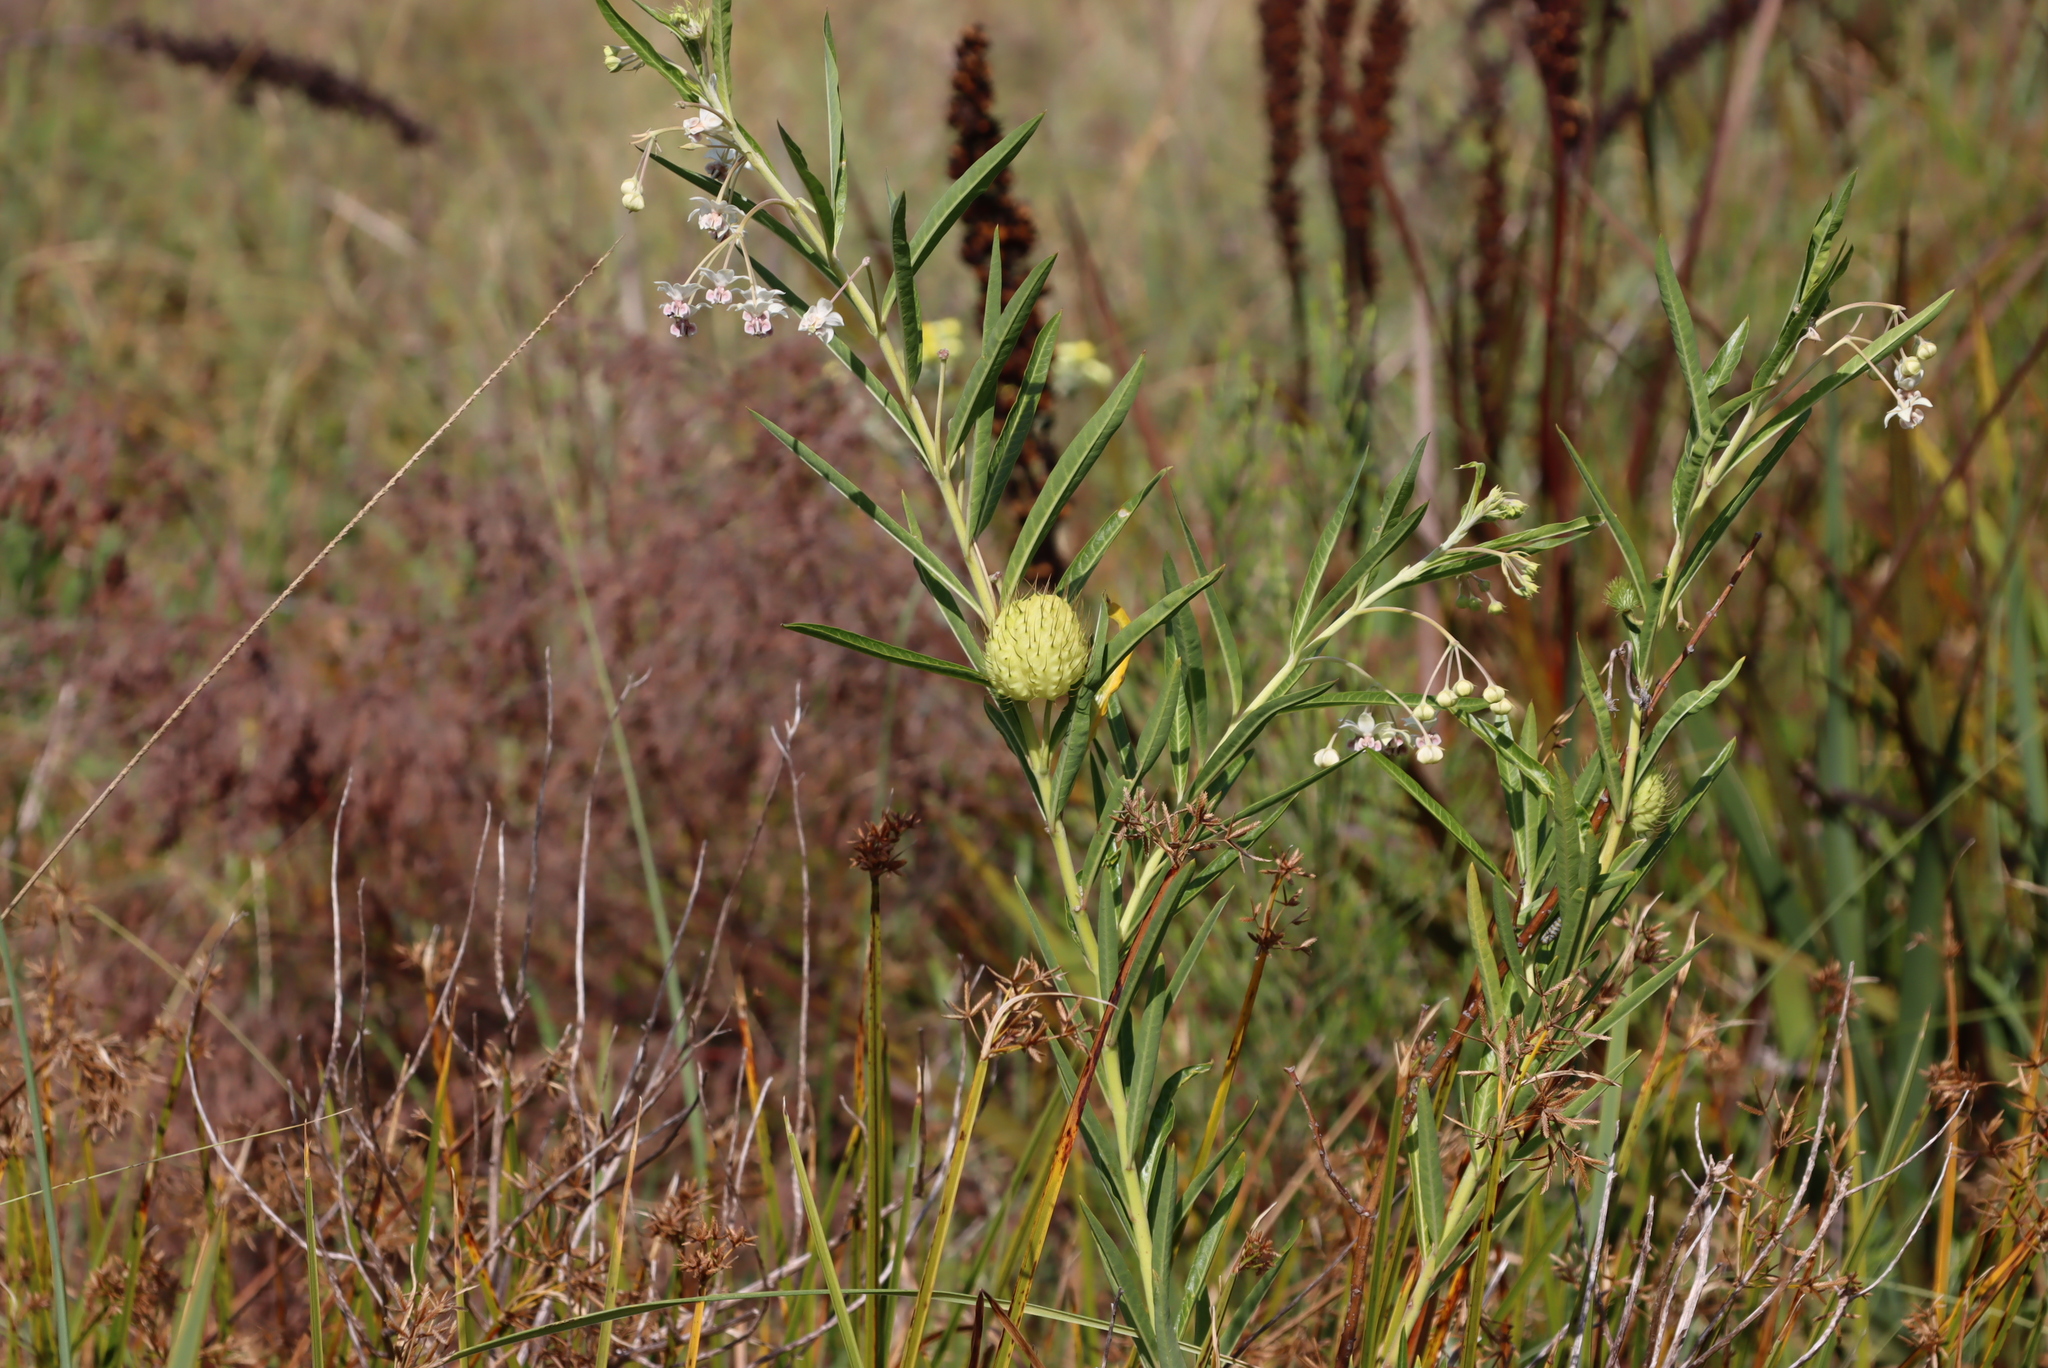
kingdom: Plantae
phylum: Tracheophyta
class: Magnoliopsida
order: Gentianales
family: Apocynaceae
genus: Gomphocarpus
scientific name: Gomphocarpus physocarpus
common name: Balloon cotton bush
